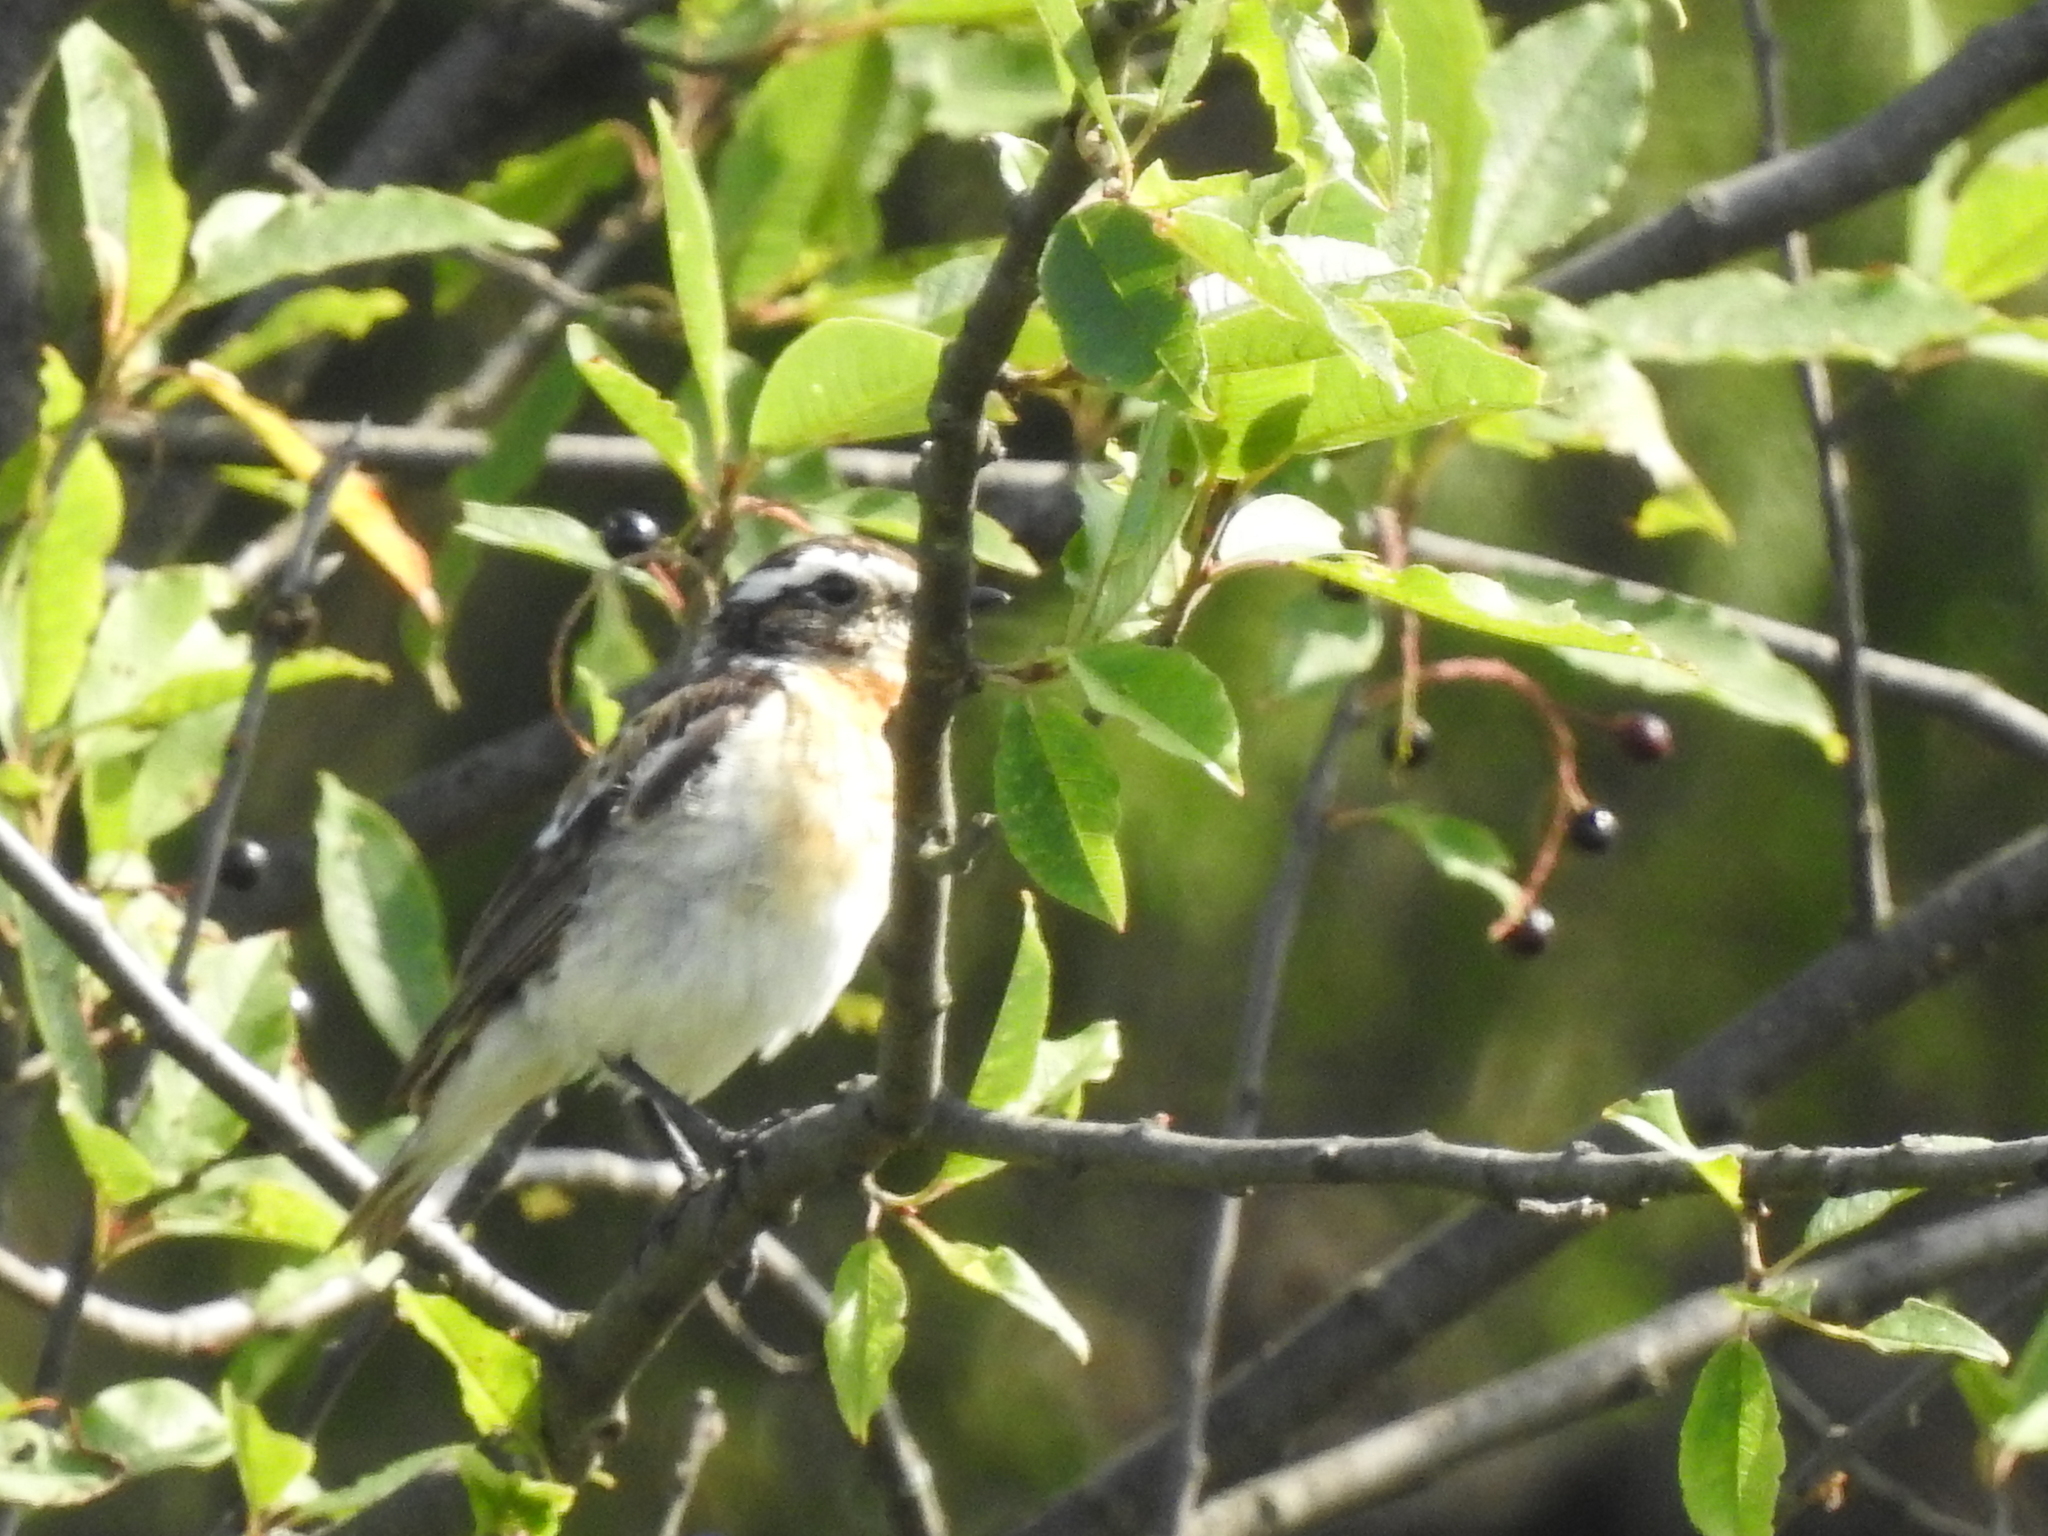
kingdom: Animalia
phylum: Chordata
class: Aves
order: Passeriformes
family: Muscicapidae
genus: Saxicola
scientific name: Saxicola rubetra
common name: Whinchat
